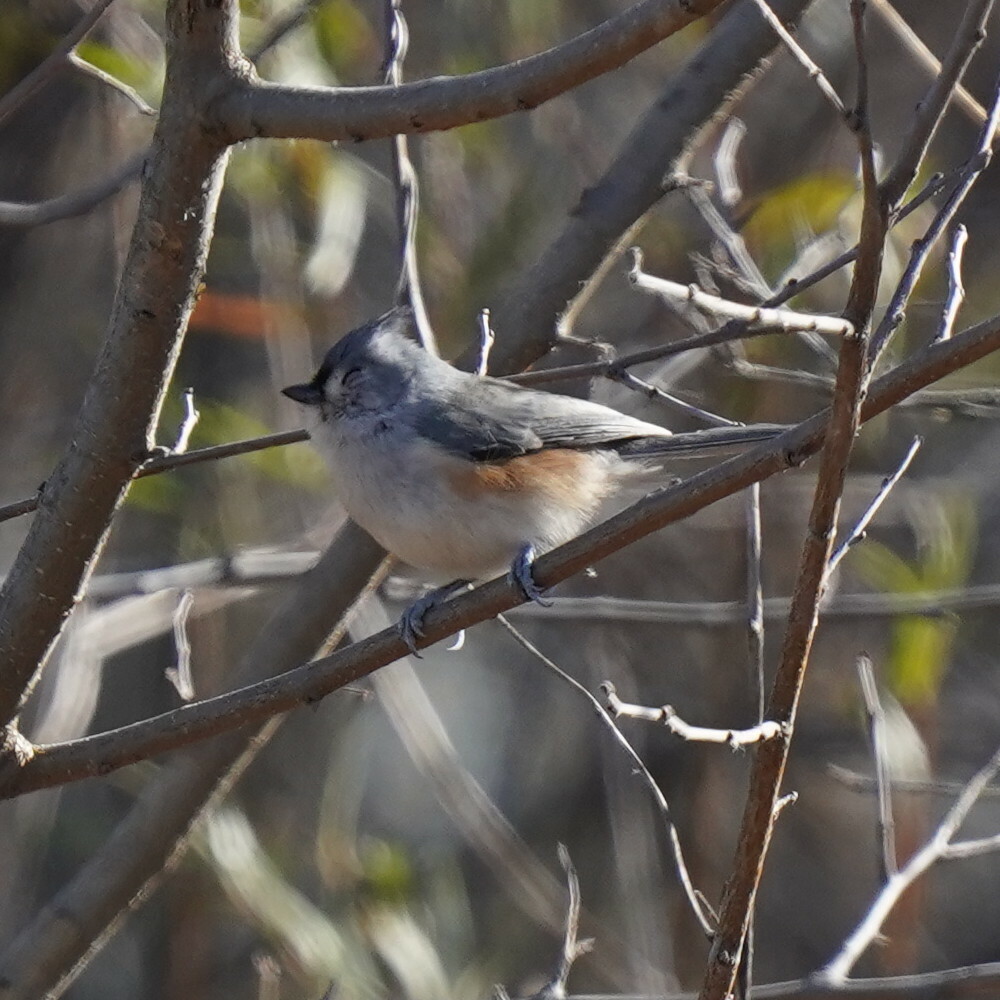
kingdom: Animalia
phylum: Chordata
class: Aves
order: Passeriformes
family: Paridae
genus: Baeolophus
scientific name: Baeolophus bicolor
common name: Tufted titmouse
